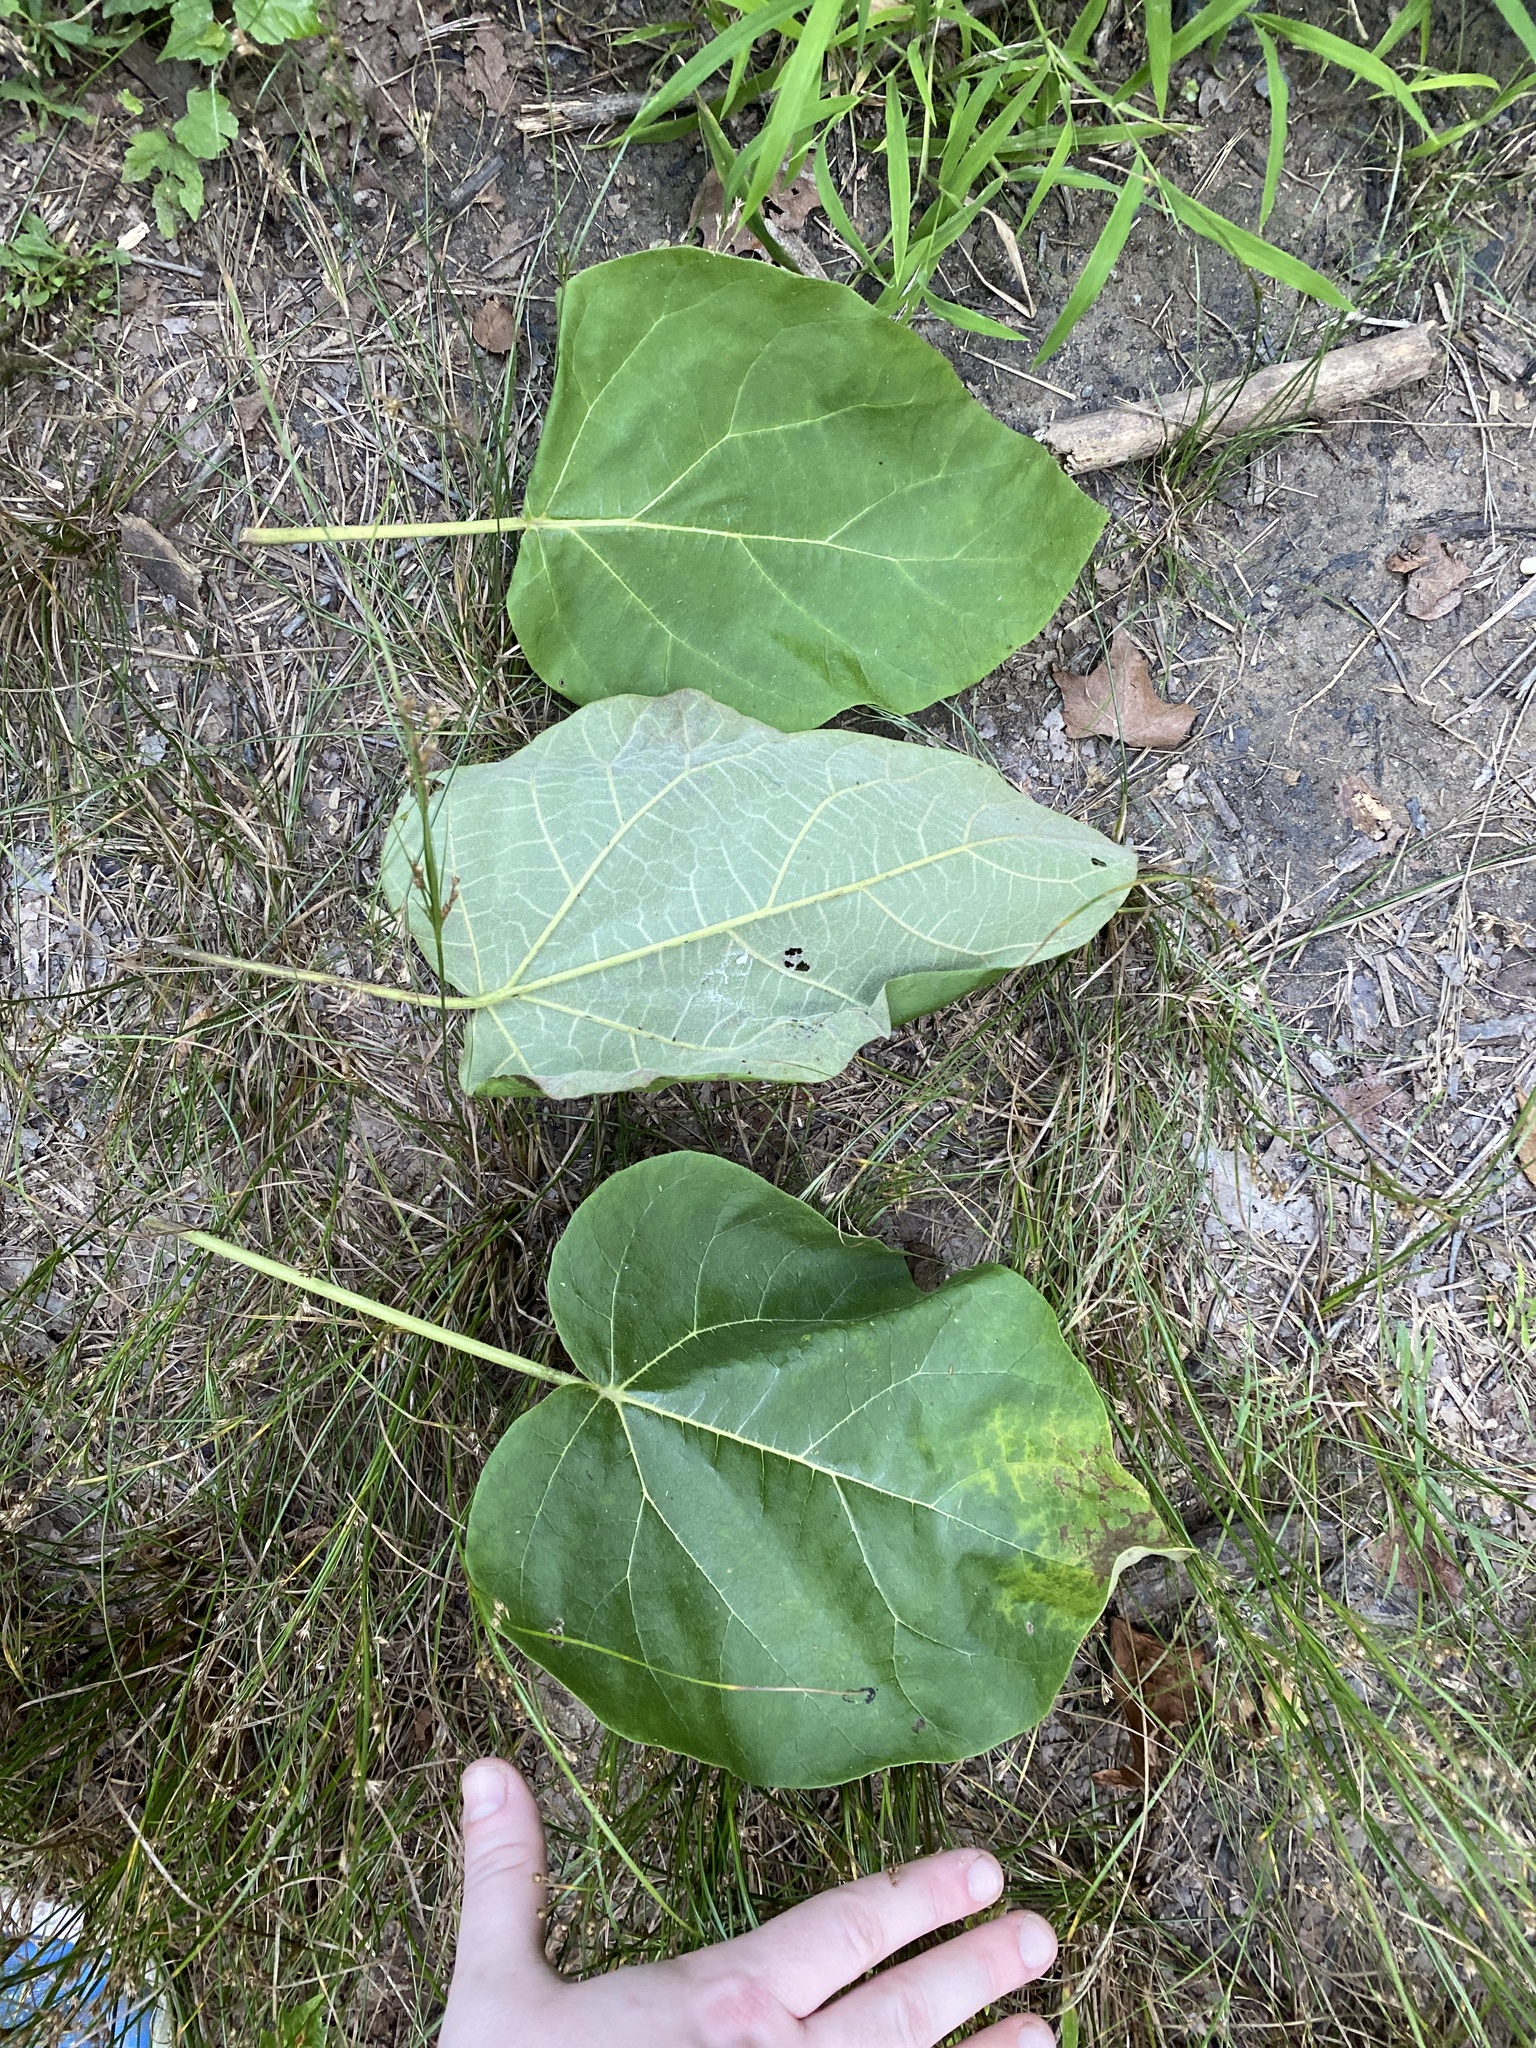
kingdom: Plantae
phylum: Tracheophyta
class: Magnoliopsida
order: Lamiales
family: Paulowniaceae
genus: Paulownia
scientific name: Paulownia tomentosa
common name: Foxglove-tree
